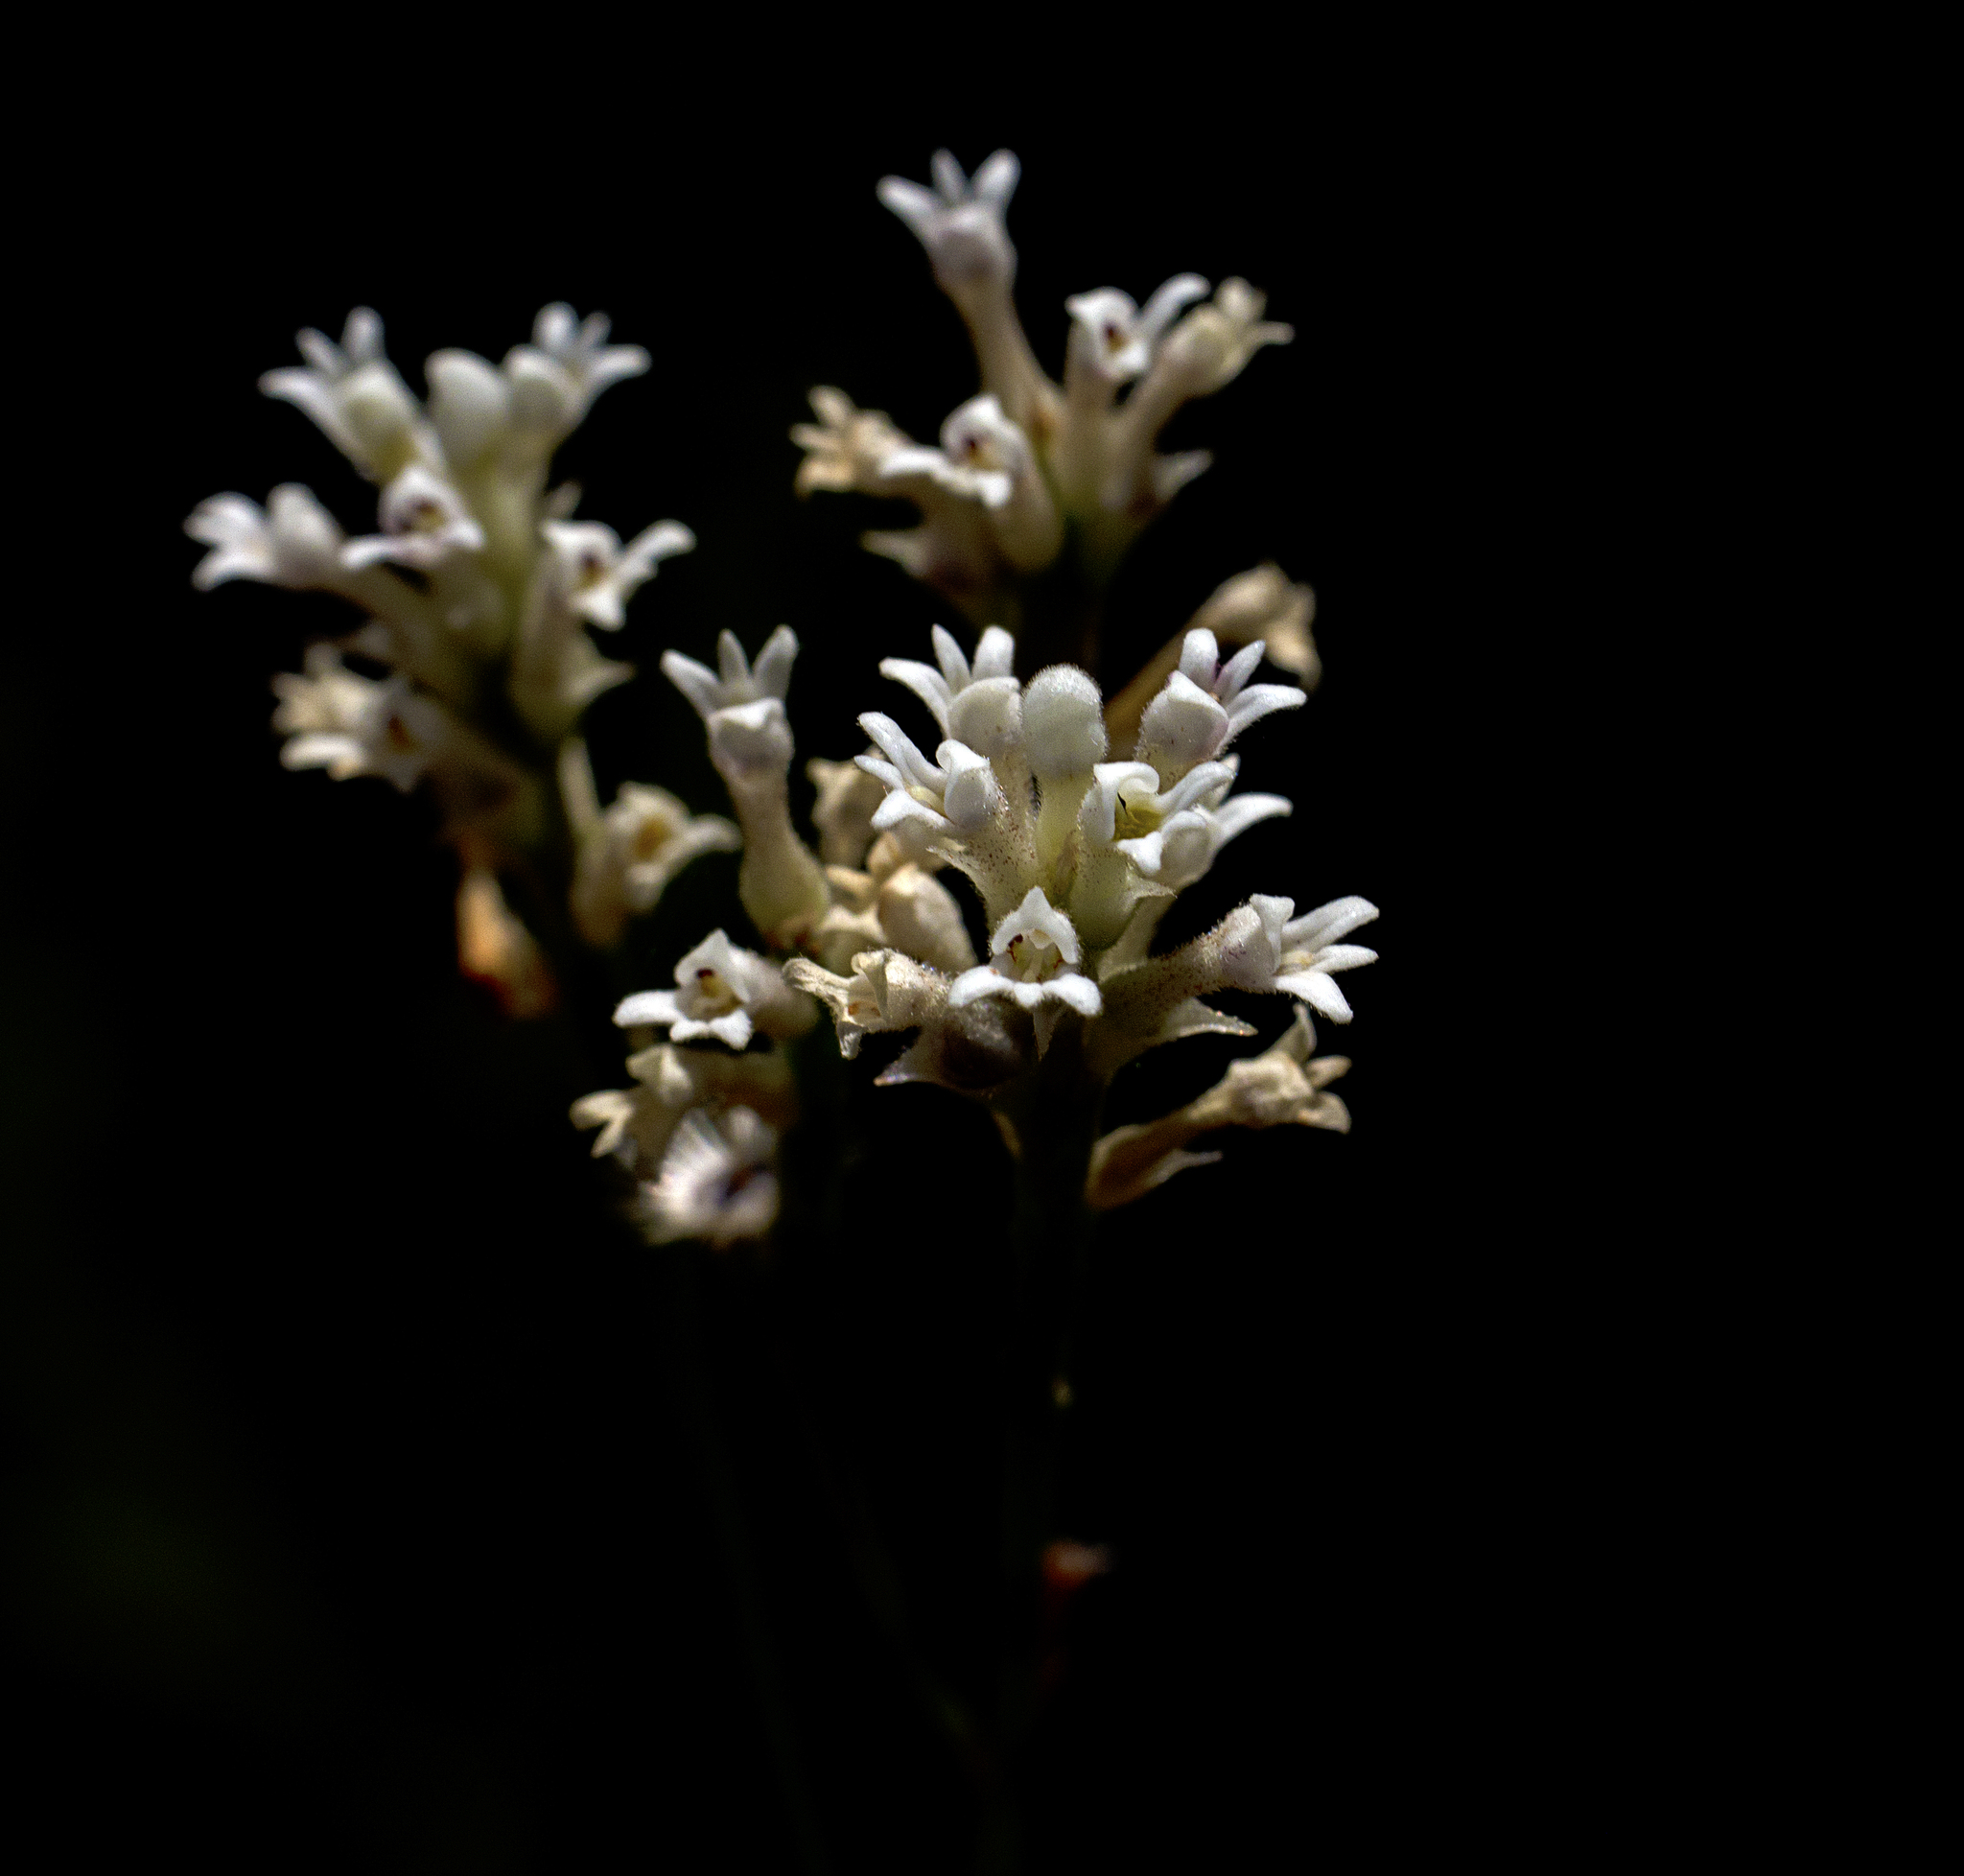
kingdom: Plantae
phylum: Tracheophyta
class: Magnoliopsida
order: Proteales
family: Proteaceae
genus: Conospermum
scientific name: Conospermum taxifolium
